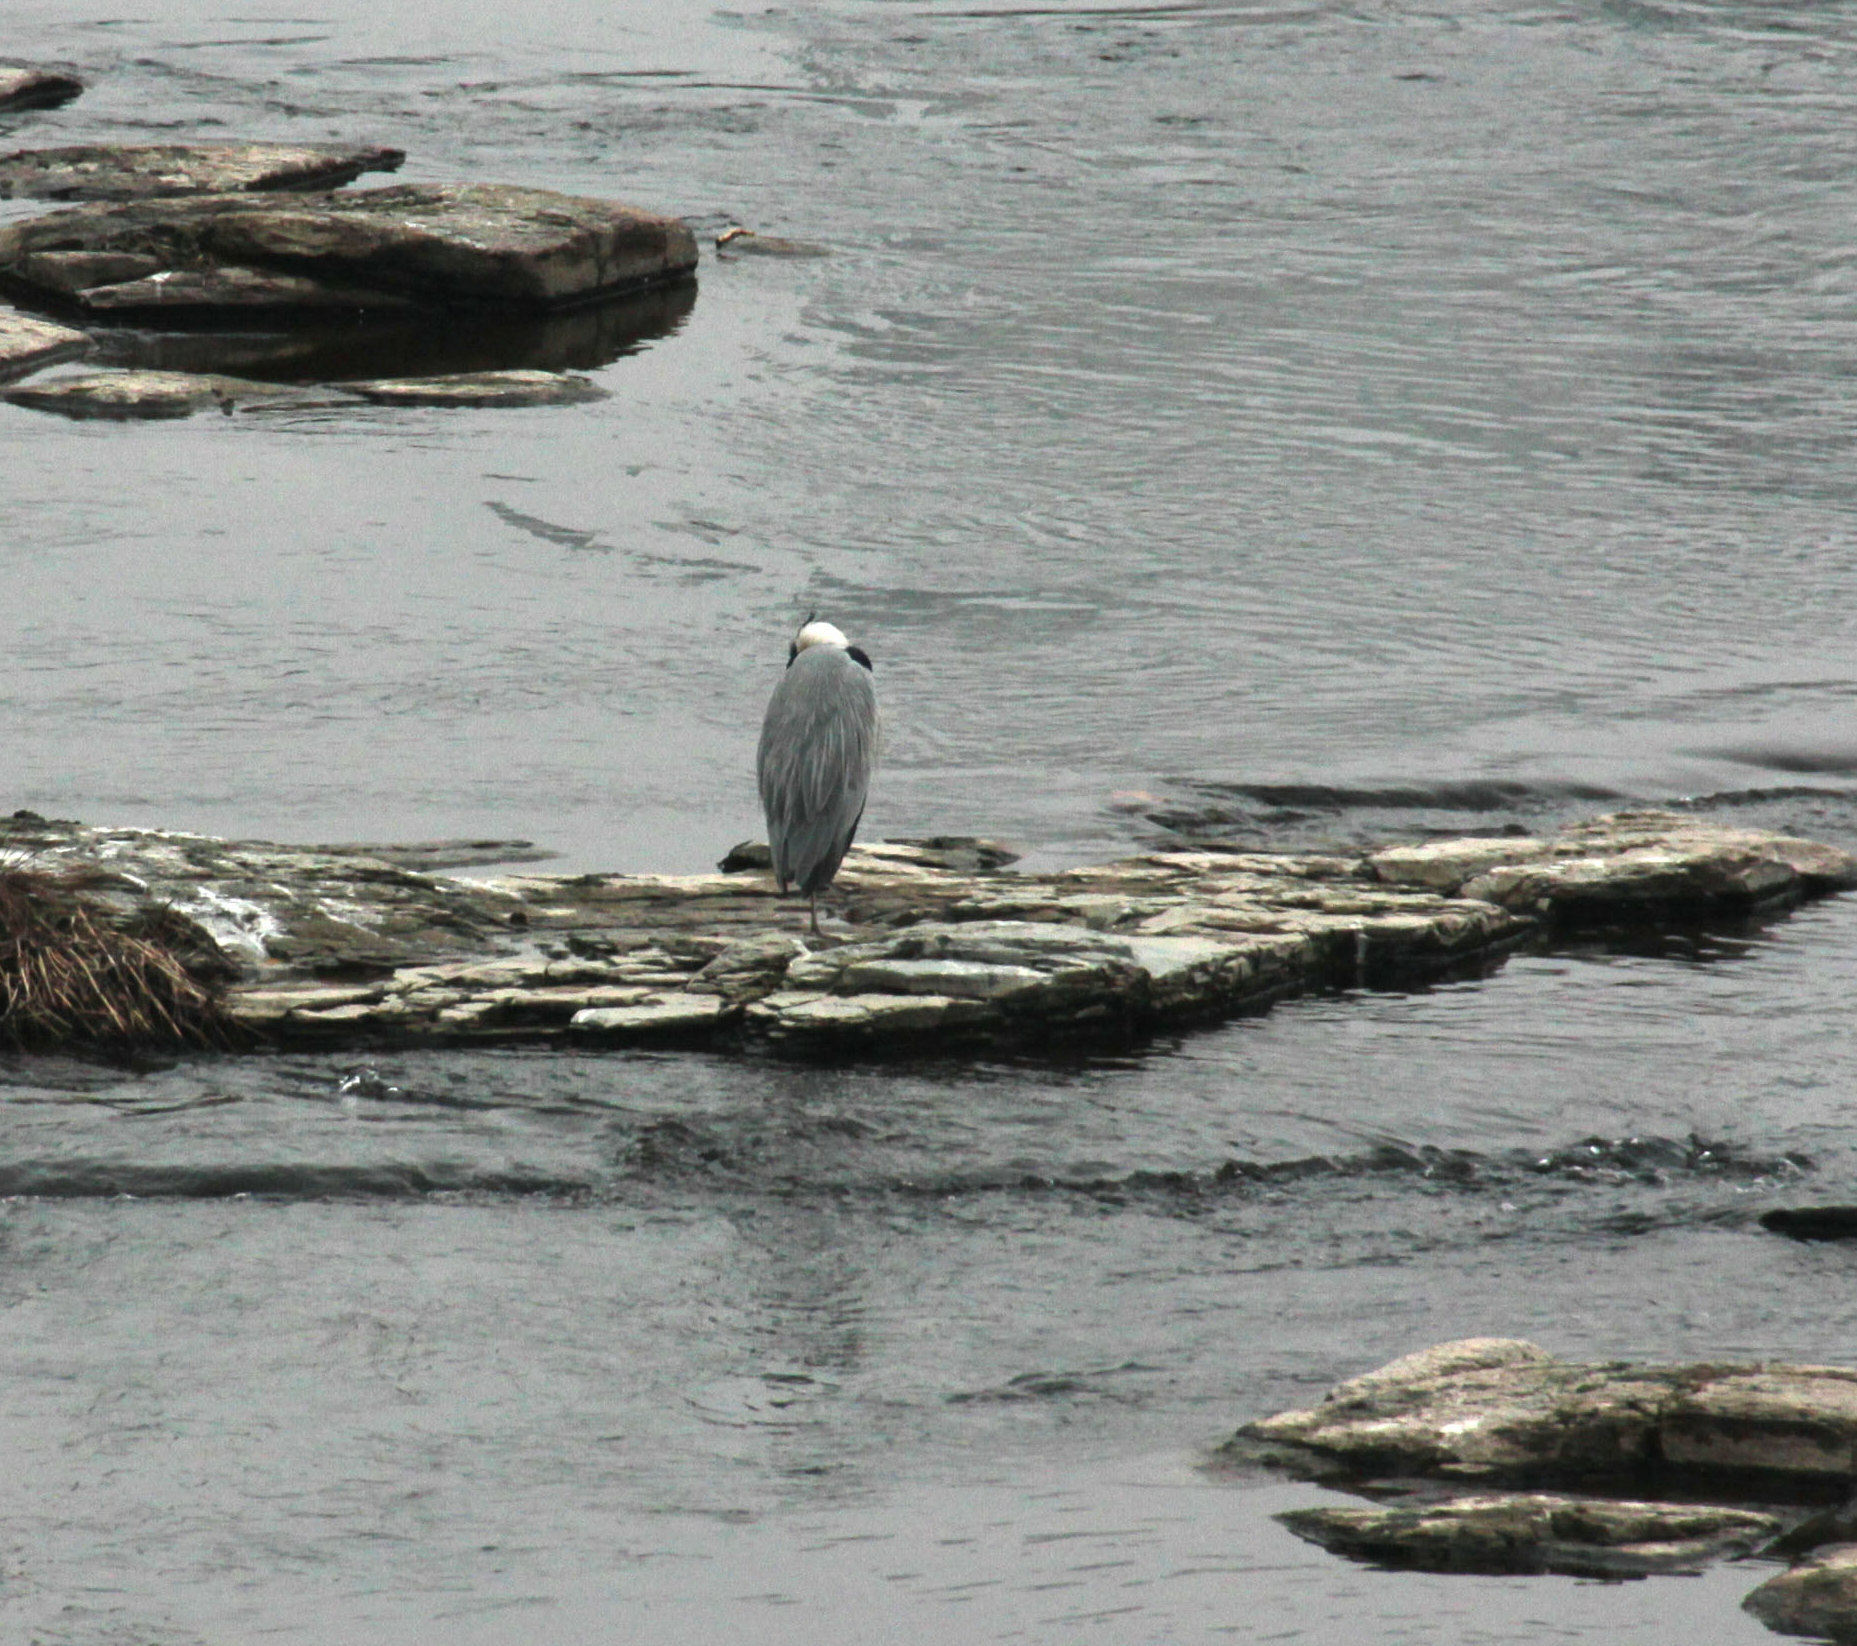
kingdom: Animalia
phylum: Chordata
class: Aves
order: Pelecaniformes
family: Ardeidae
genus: Ardea
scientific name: Ardea cinerea
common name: Grey heron
